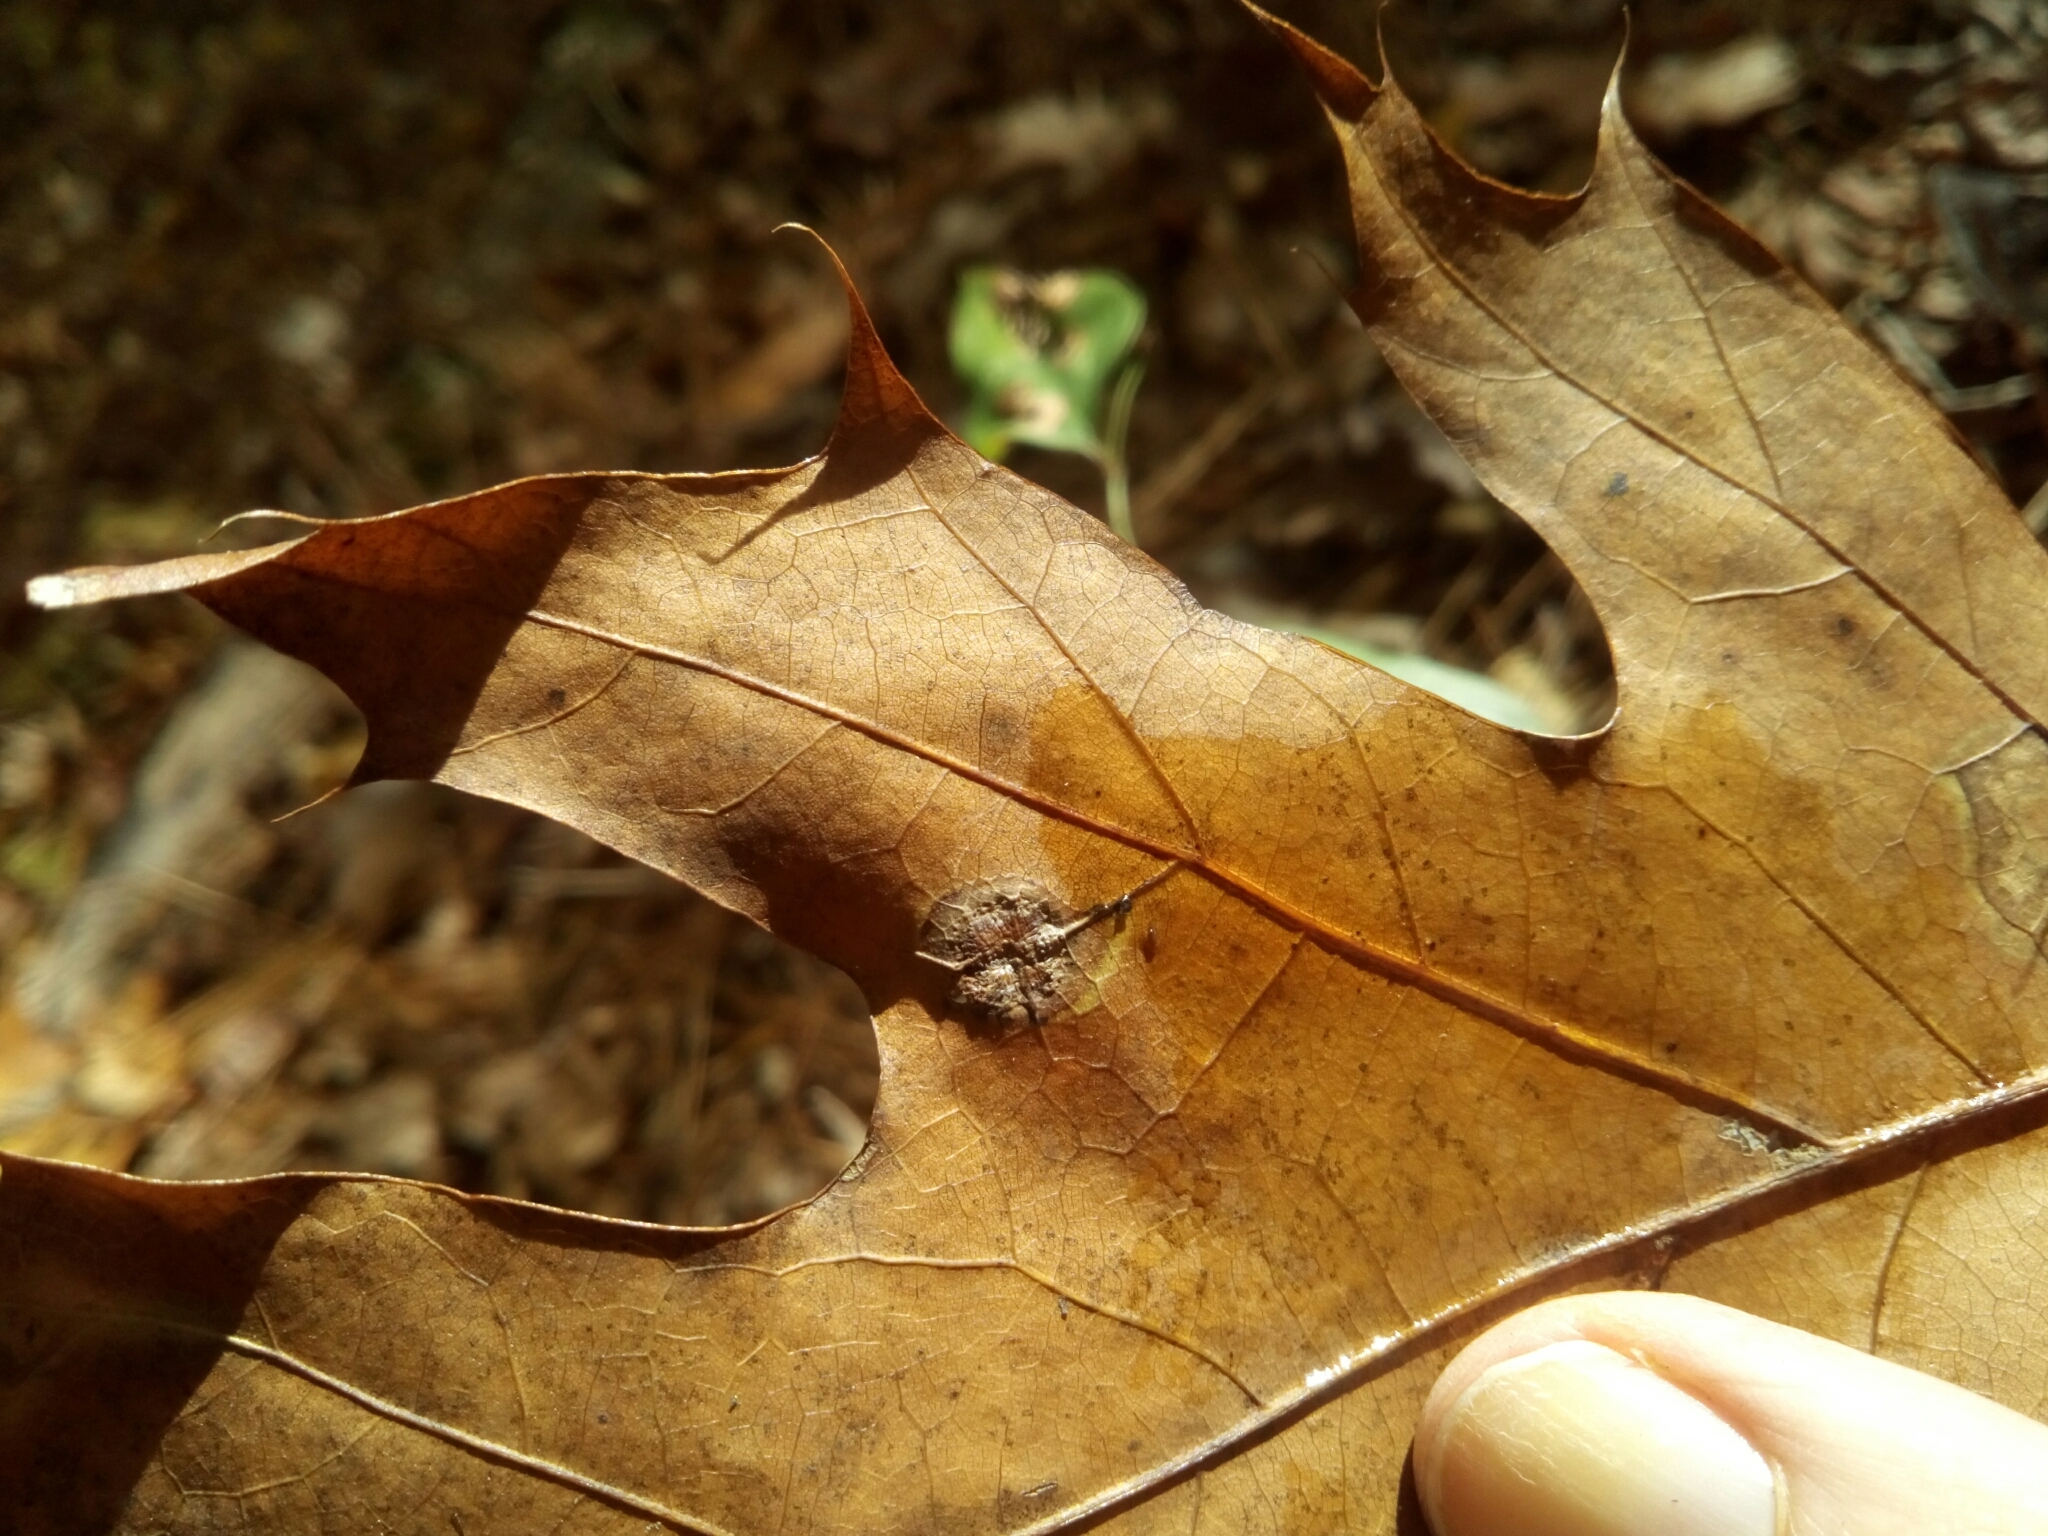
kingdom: Animalia
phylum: Arthropoda
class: Insecta
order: Diptera
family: Cecidomyiidae
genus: Polystepha
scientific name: Polystepha pilulae
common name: Oak leaf gall midge
